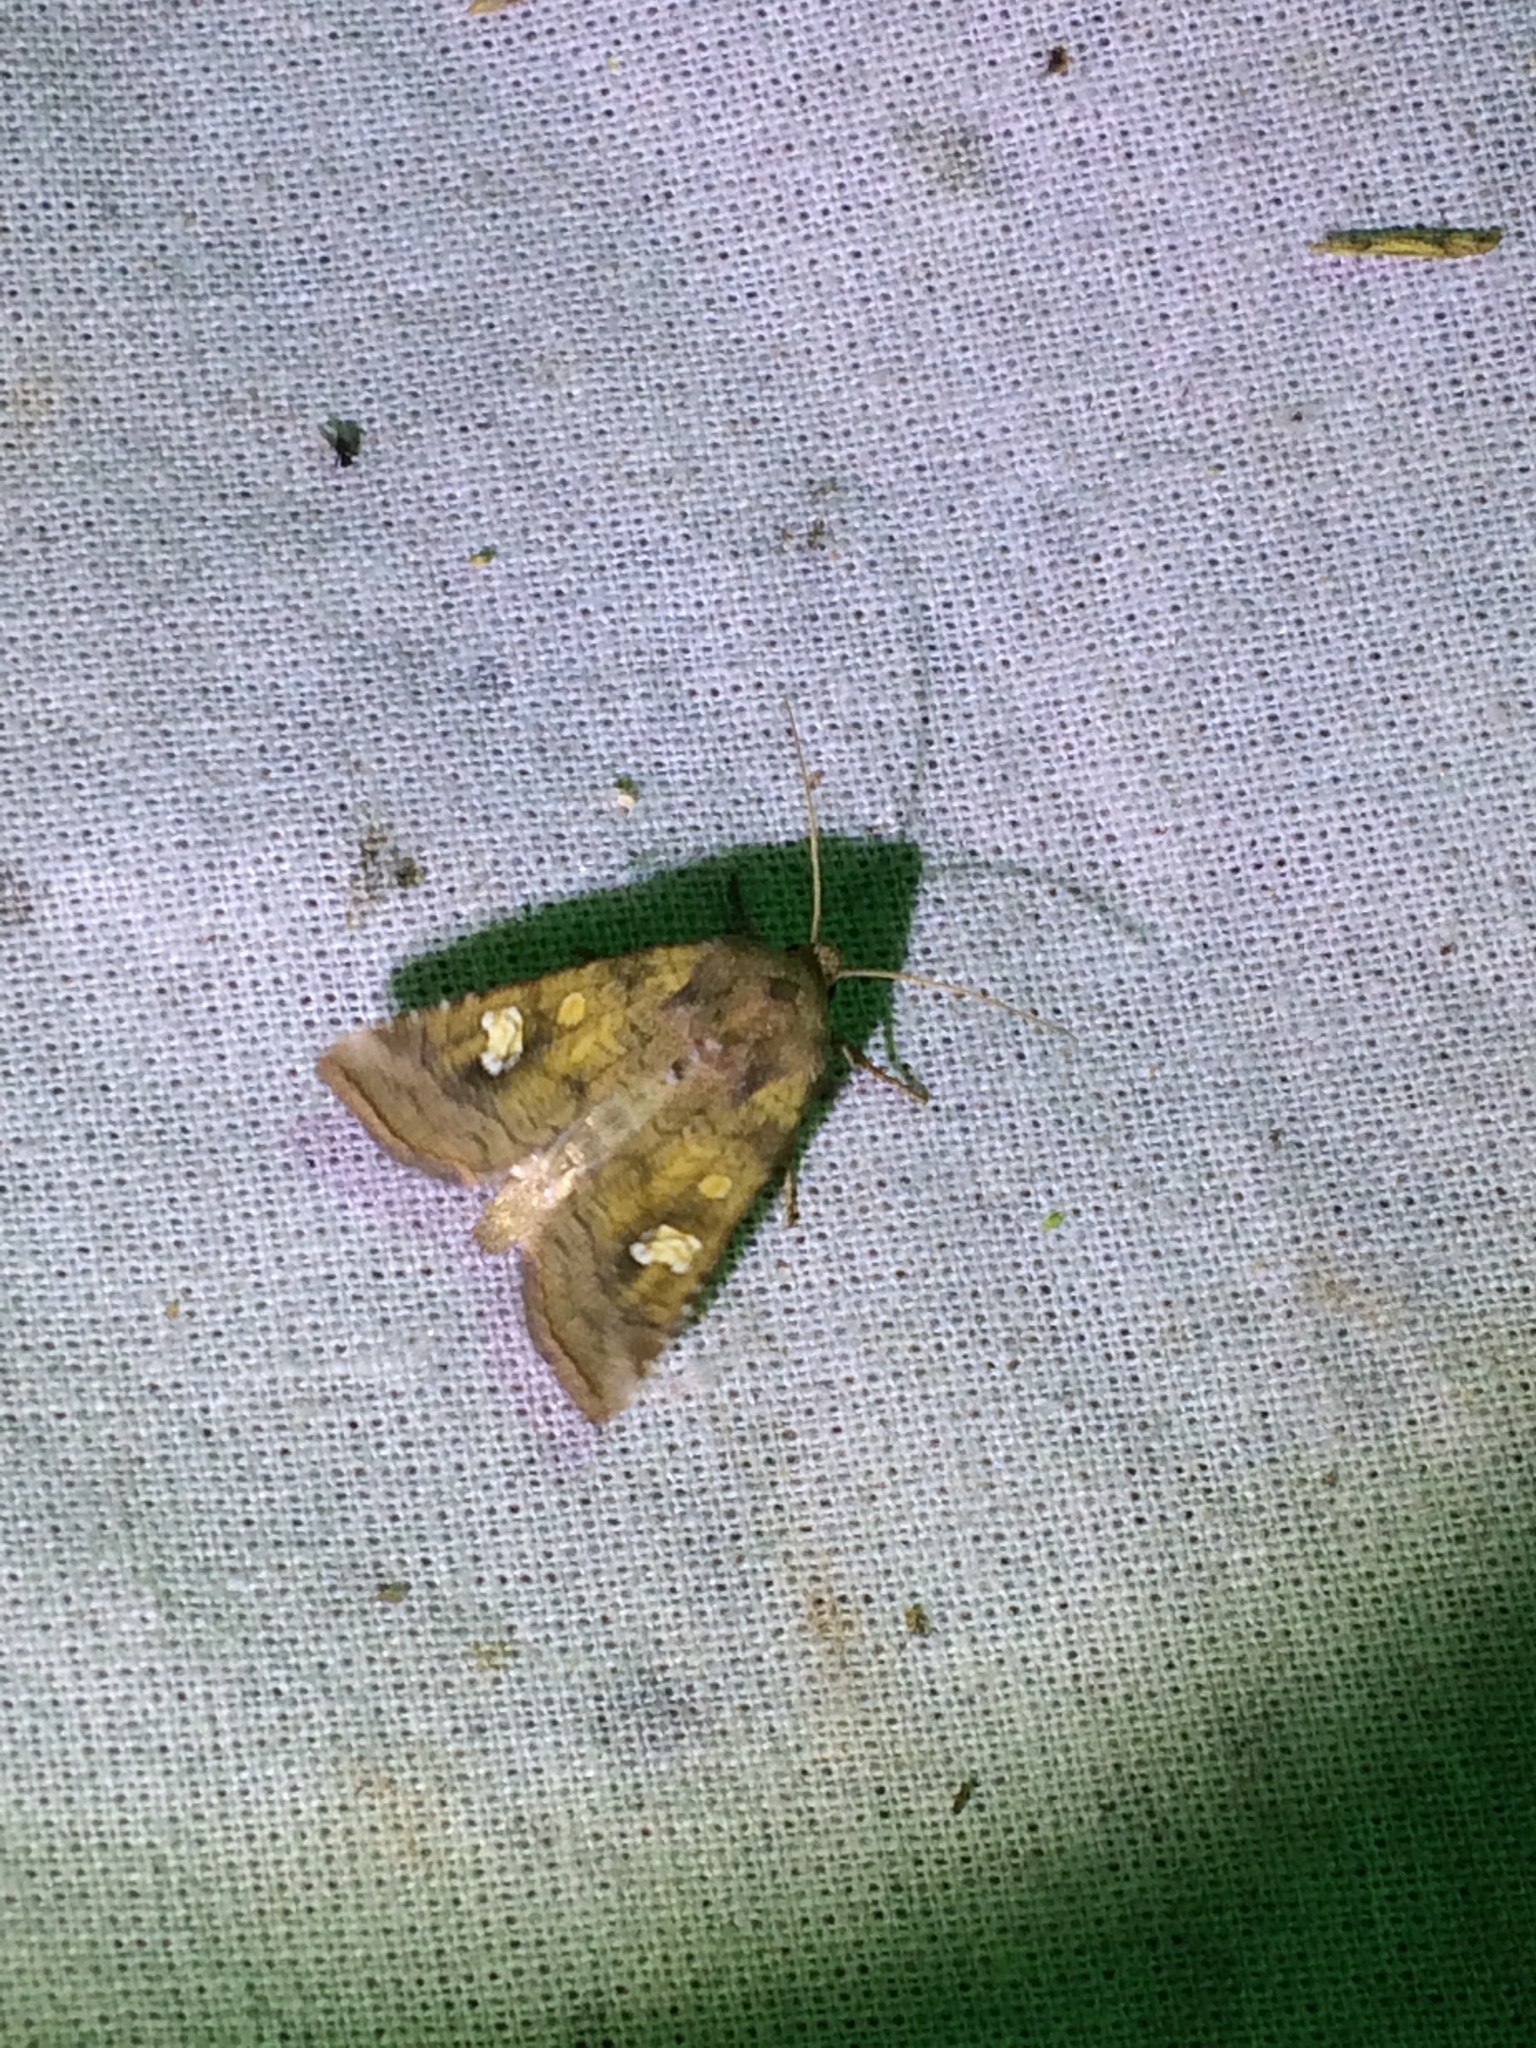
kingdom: Animalia
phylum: Arthropoda
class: Insecta
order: Lepidoptera
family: Noctuidae
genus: Amphipoea
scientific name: Amphipoea oculea
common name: Ear moth
